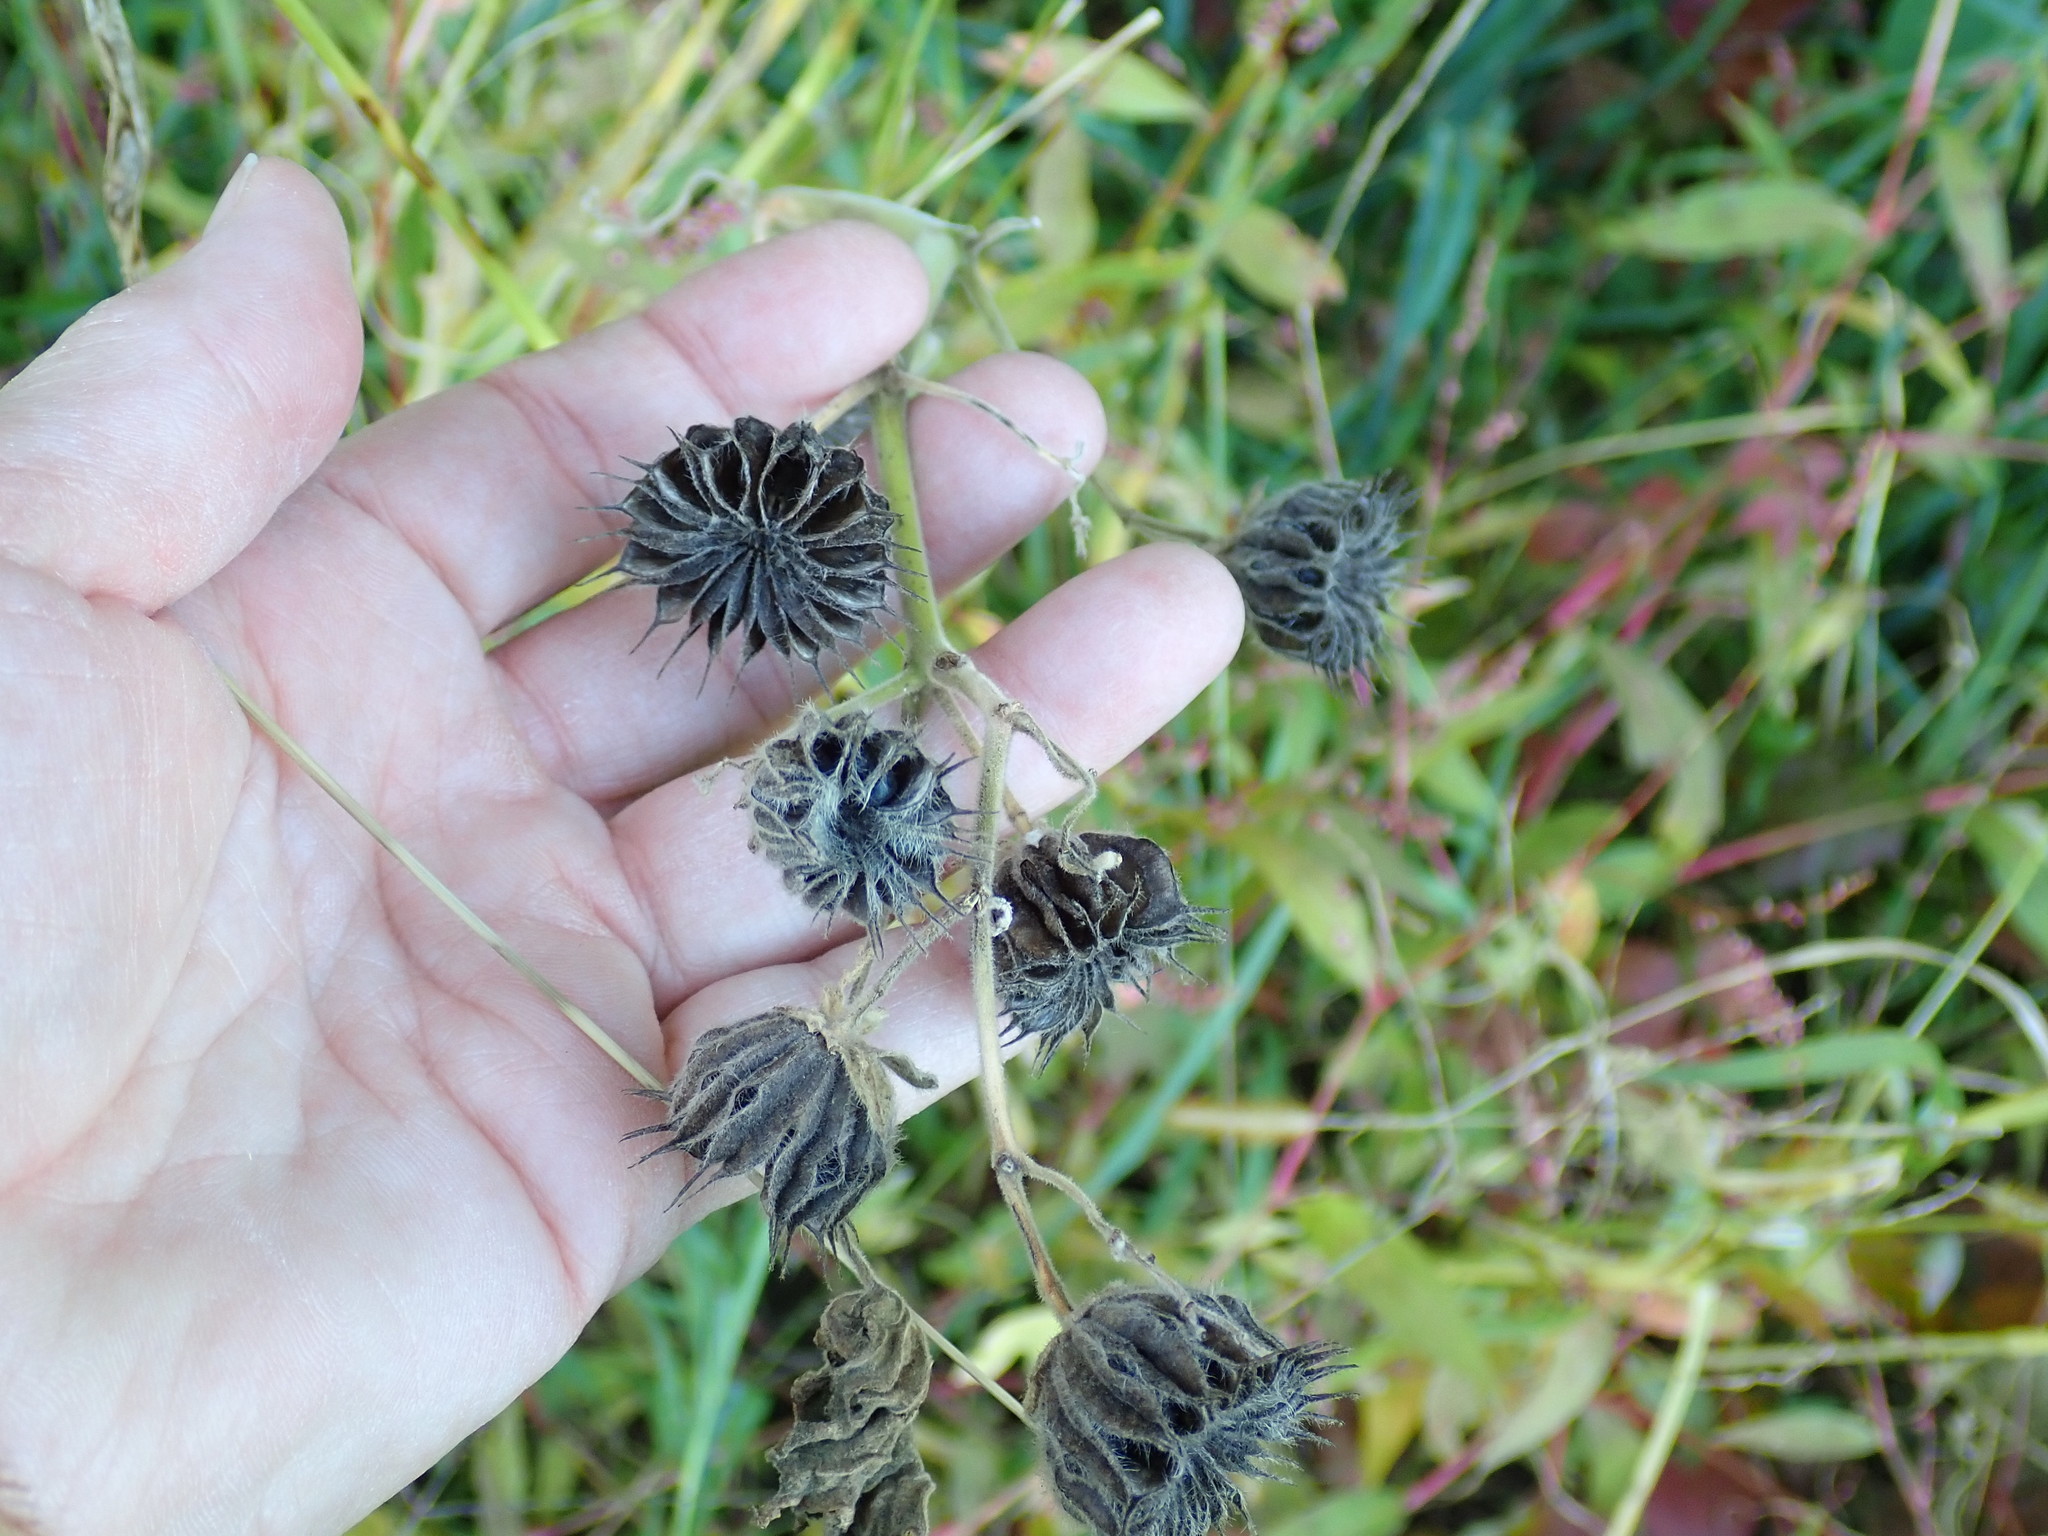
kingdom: Plantae
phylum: Tracheophyta
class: Magnoliopsida
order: Malvales
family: Malvaceae
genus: Abutilon
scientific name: Abutilon theophrasti
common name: Velvetleaf
